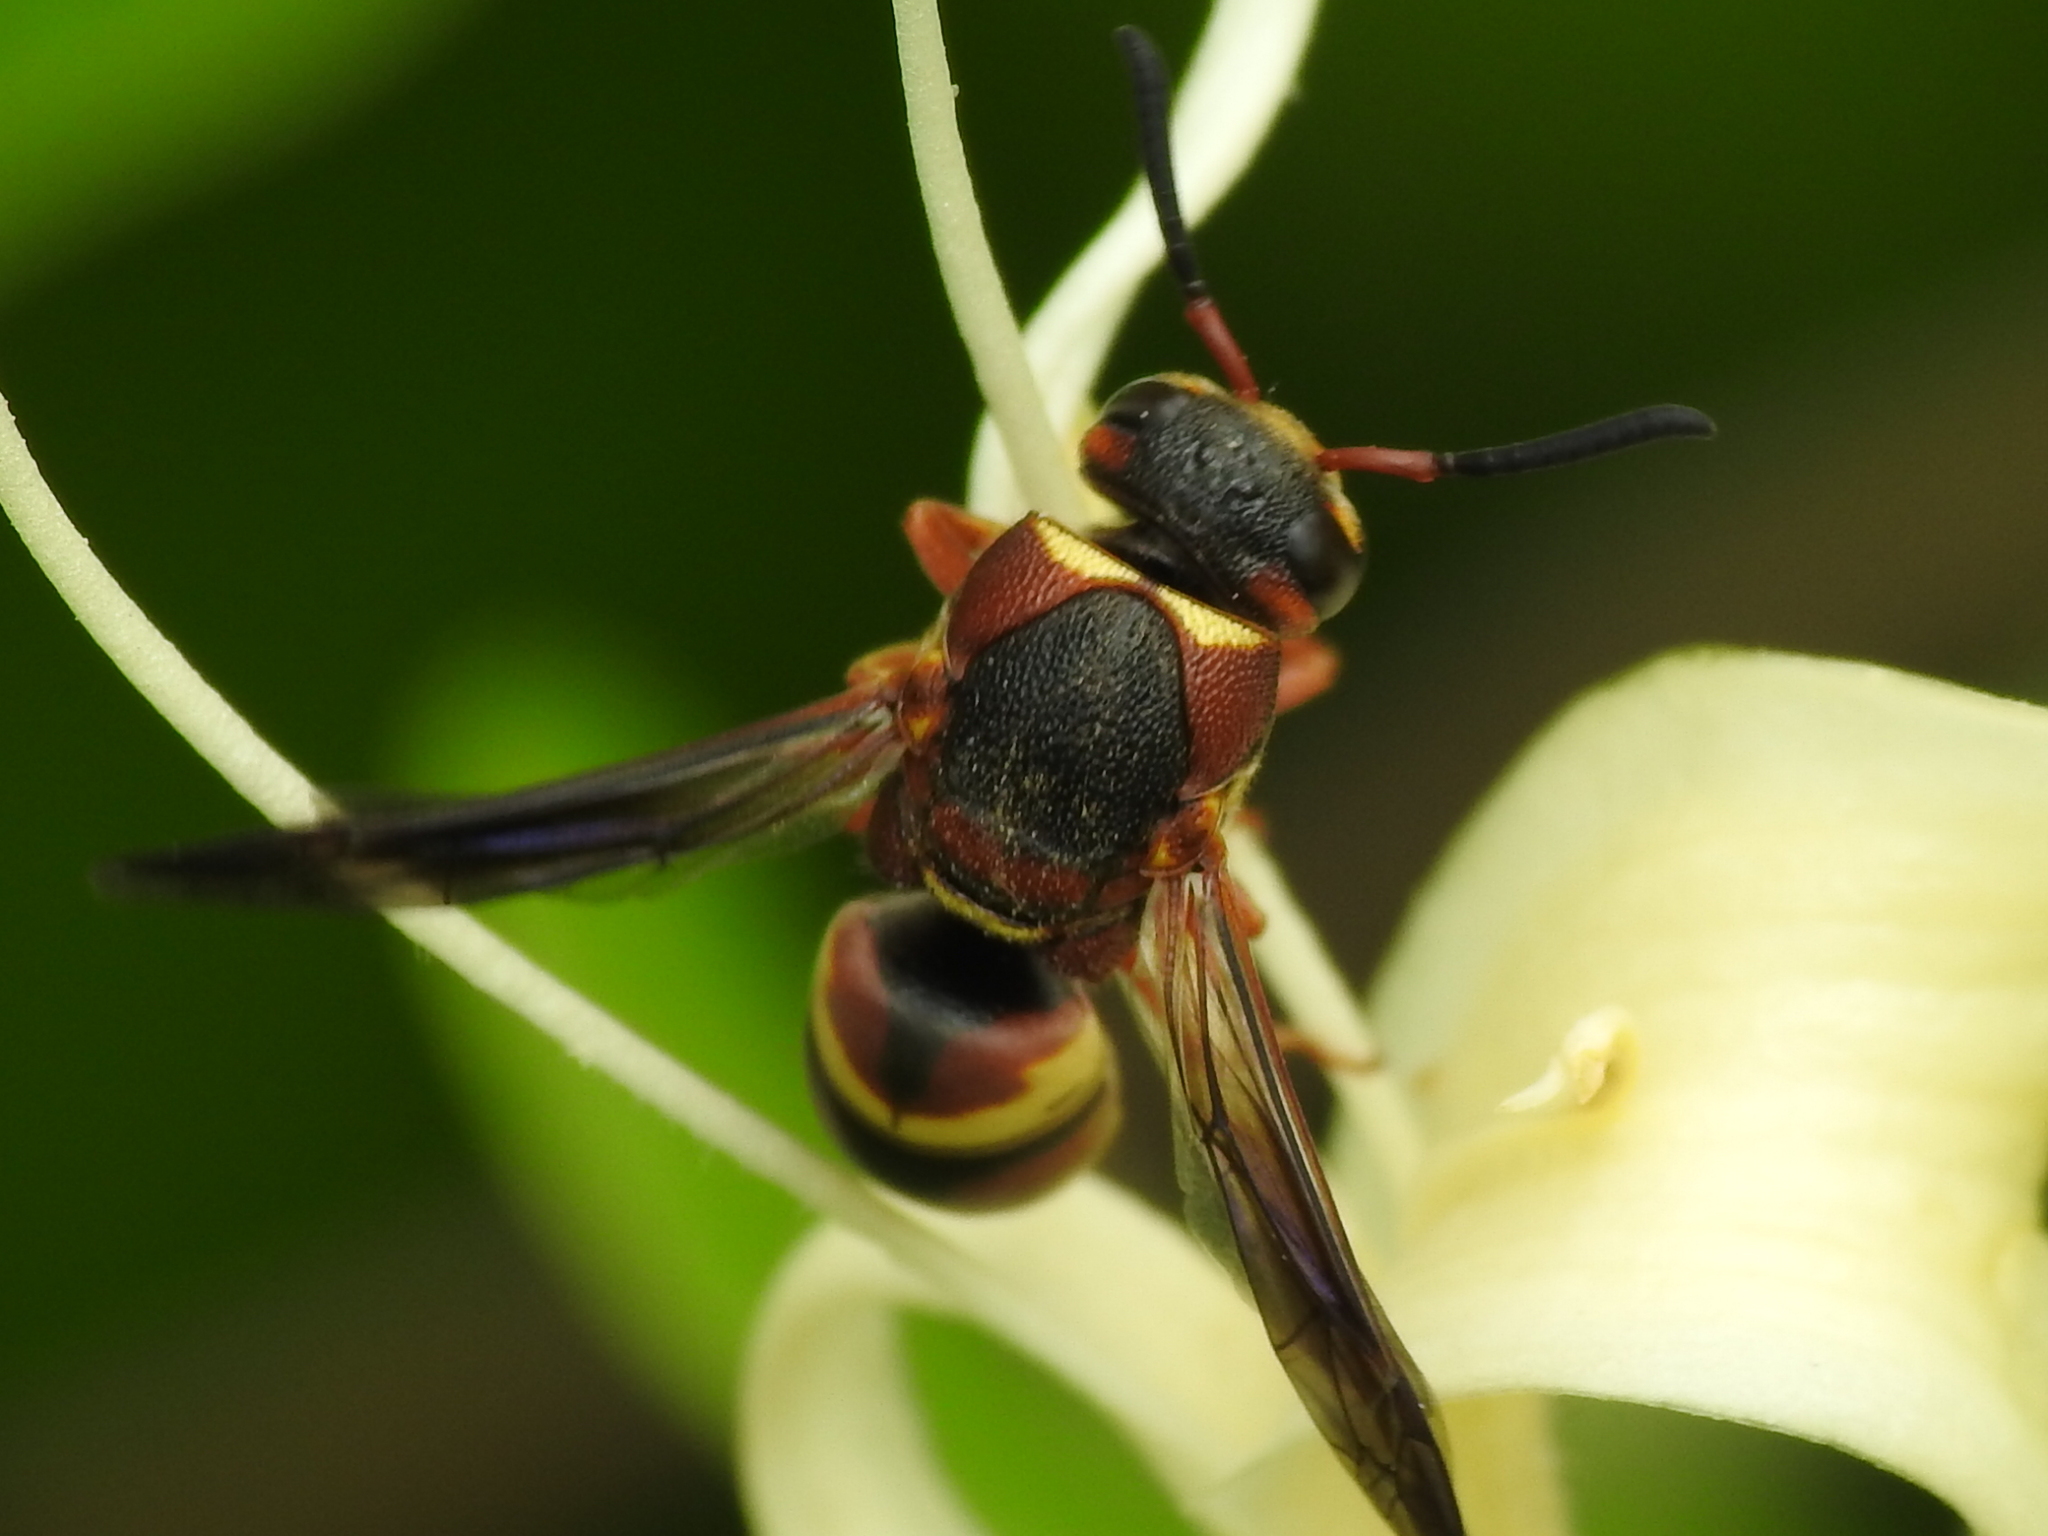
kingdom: Animalia
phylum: Arthropoda
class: Insecta
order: Hymenoptera
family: Eumenidae
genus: Euodynerus
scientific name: Euodynerus
